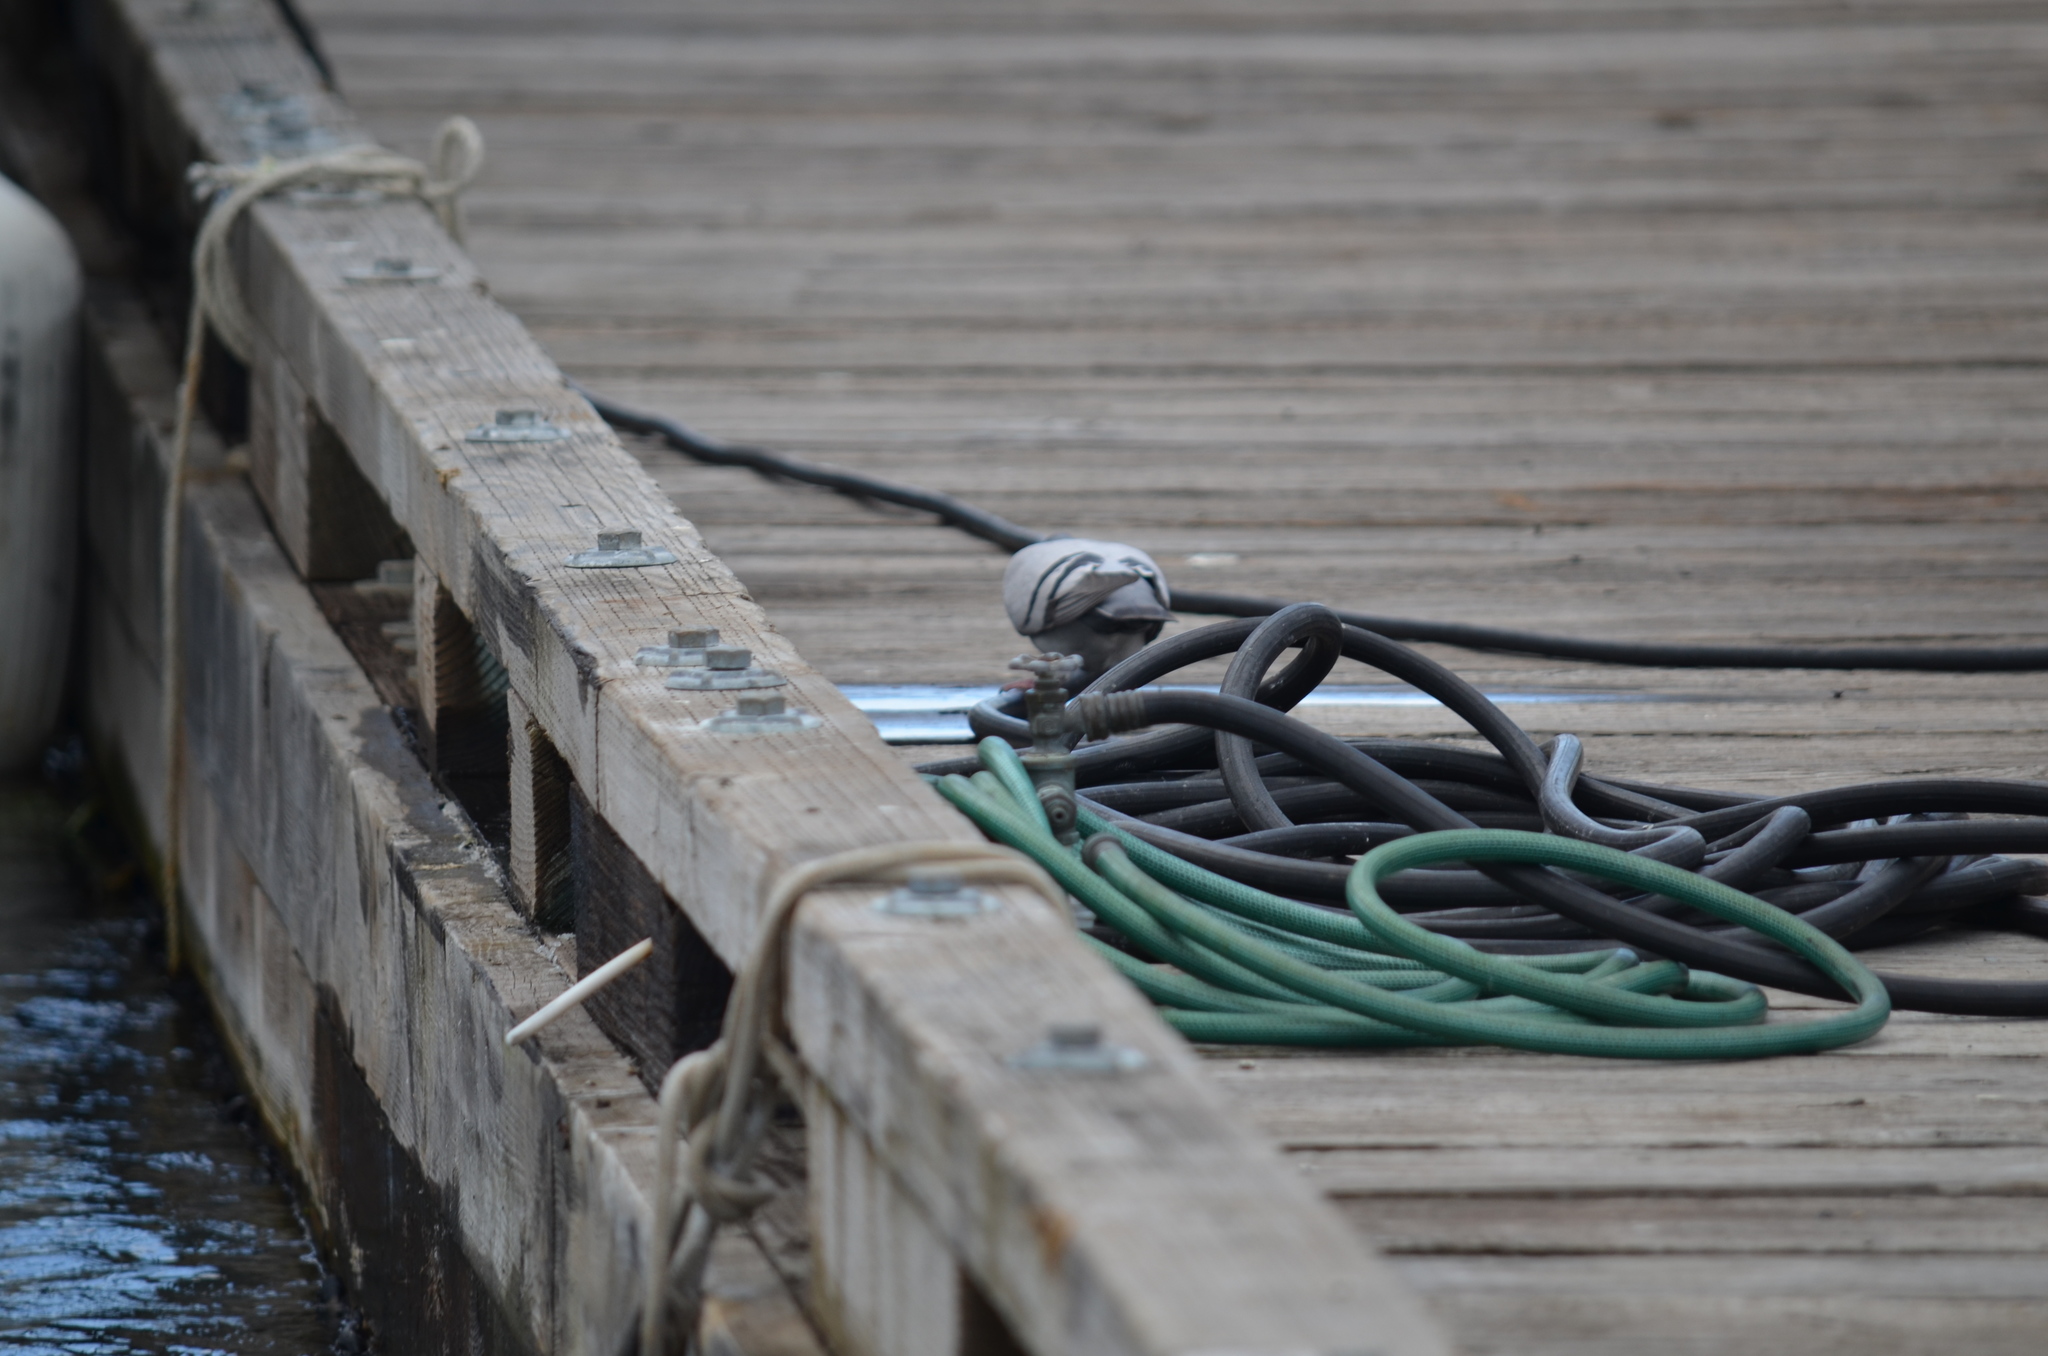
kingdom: Animalia
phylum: Chordata
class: Aves
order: Columbiformes
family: Columbidae
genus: Columba
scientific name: Columba livia
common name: Rock pigeon
